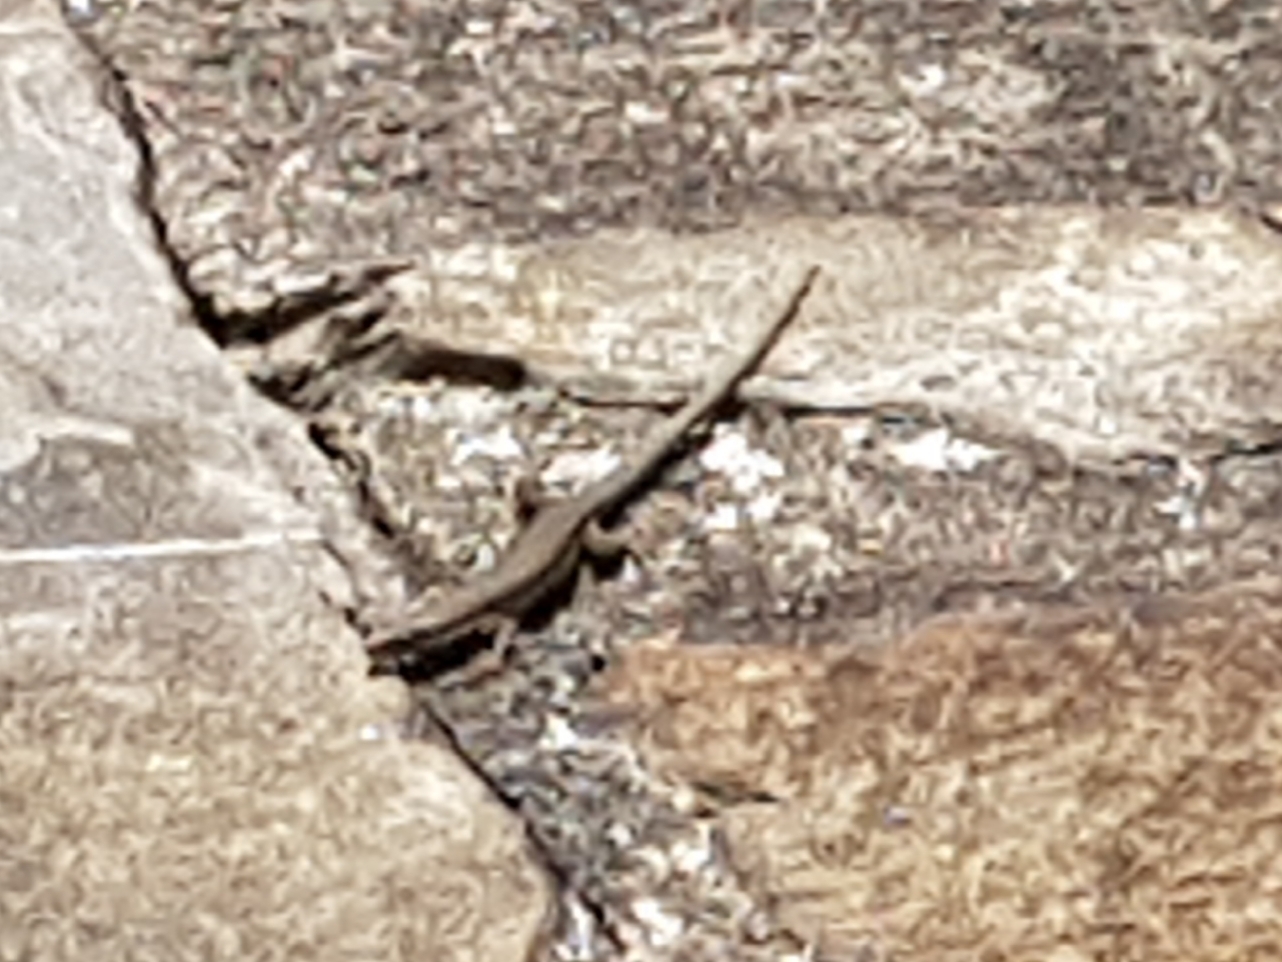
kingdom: Animalia
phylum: Chordata
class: Squamata
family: Lacertidae
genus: Podarcis
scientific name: Podarcis muralis
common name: Common wall lizard
